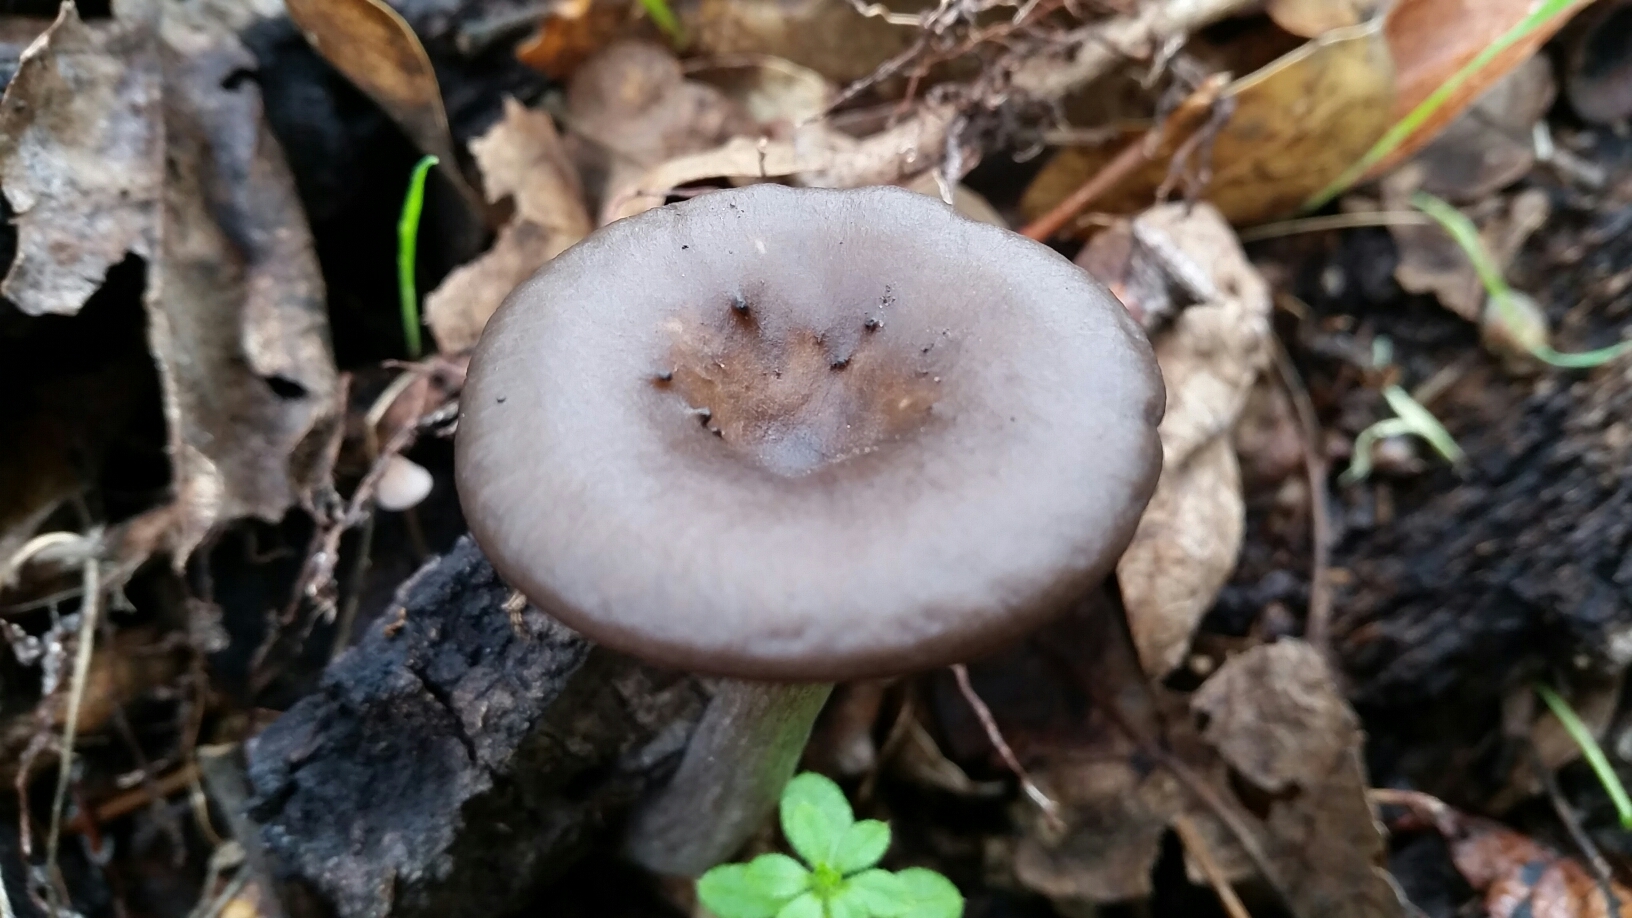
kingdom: Fungi
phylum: Basidiomycota
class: Agaricomycetes
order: Agaricales
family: Pseudoclitocybaceae
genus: Pseudoclitocybe
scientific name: Pseudoclitocybe cyathiformis
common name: Goblet
